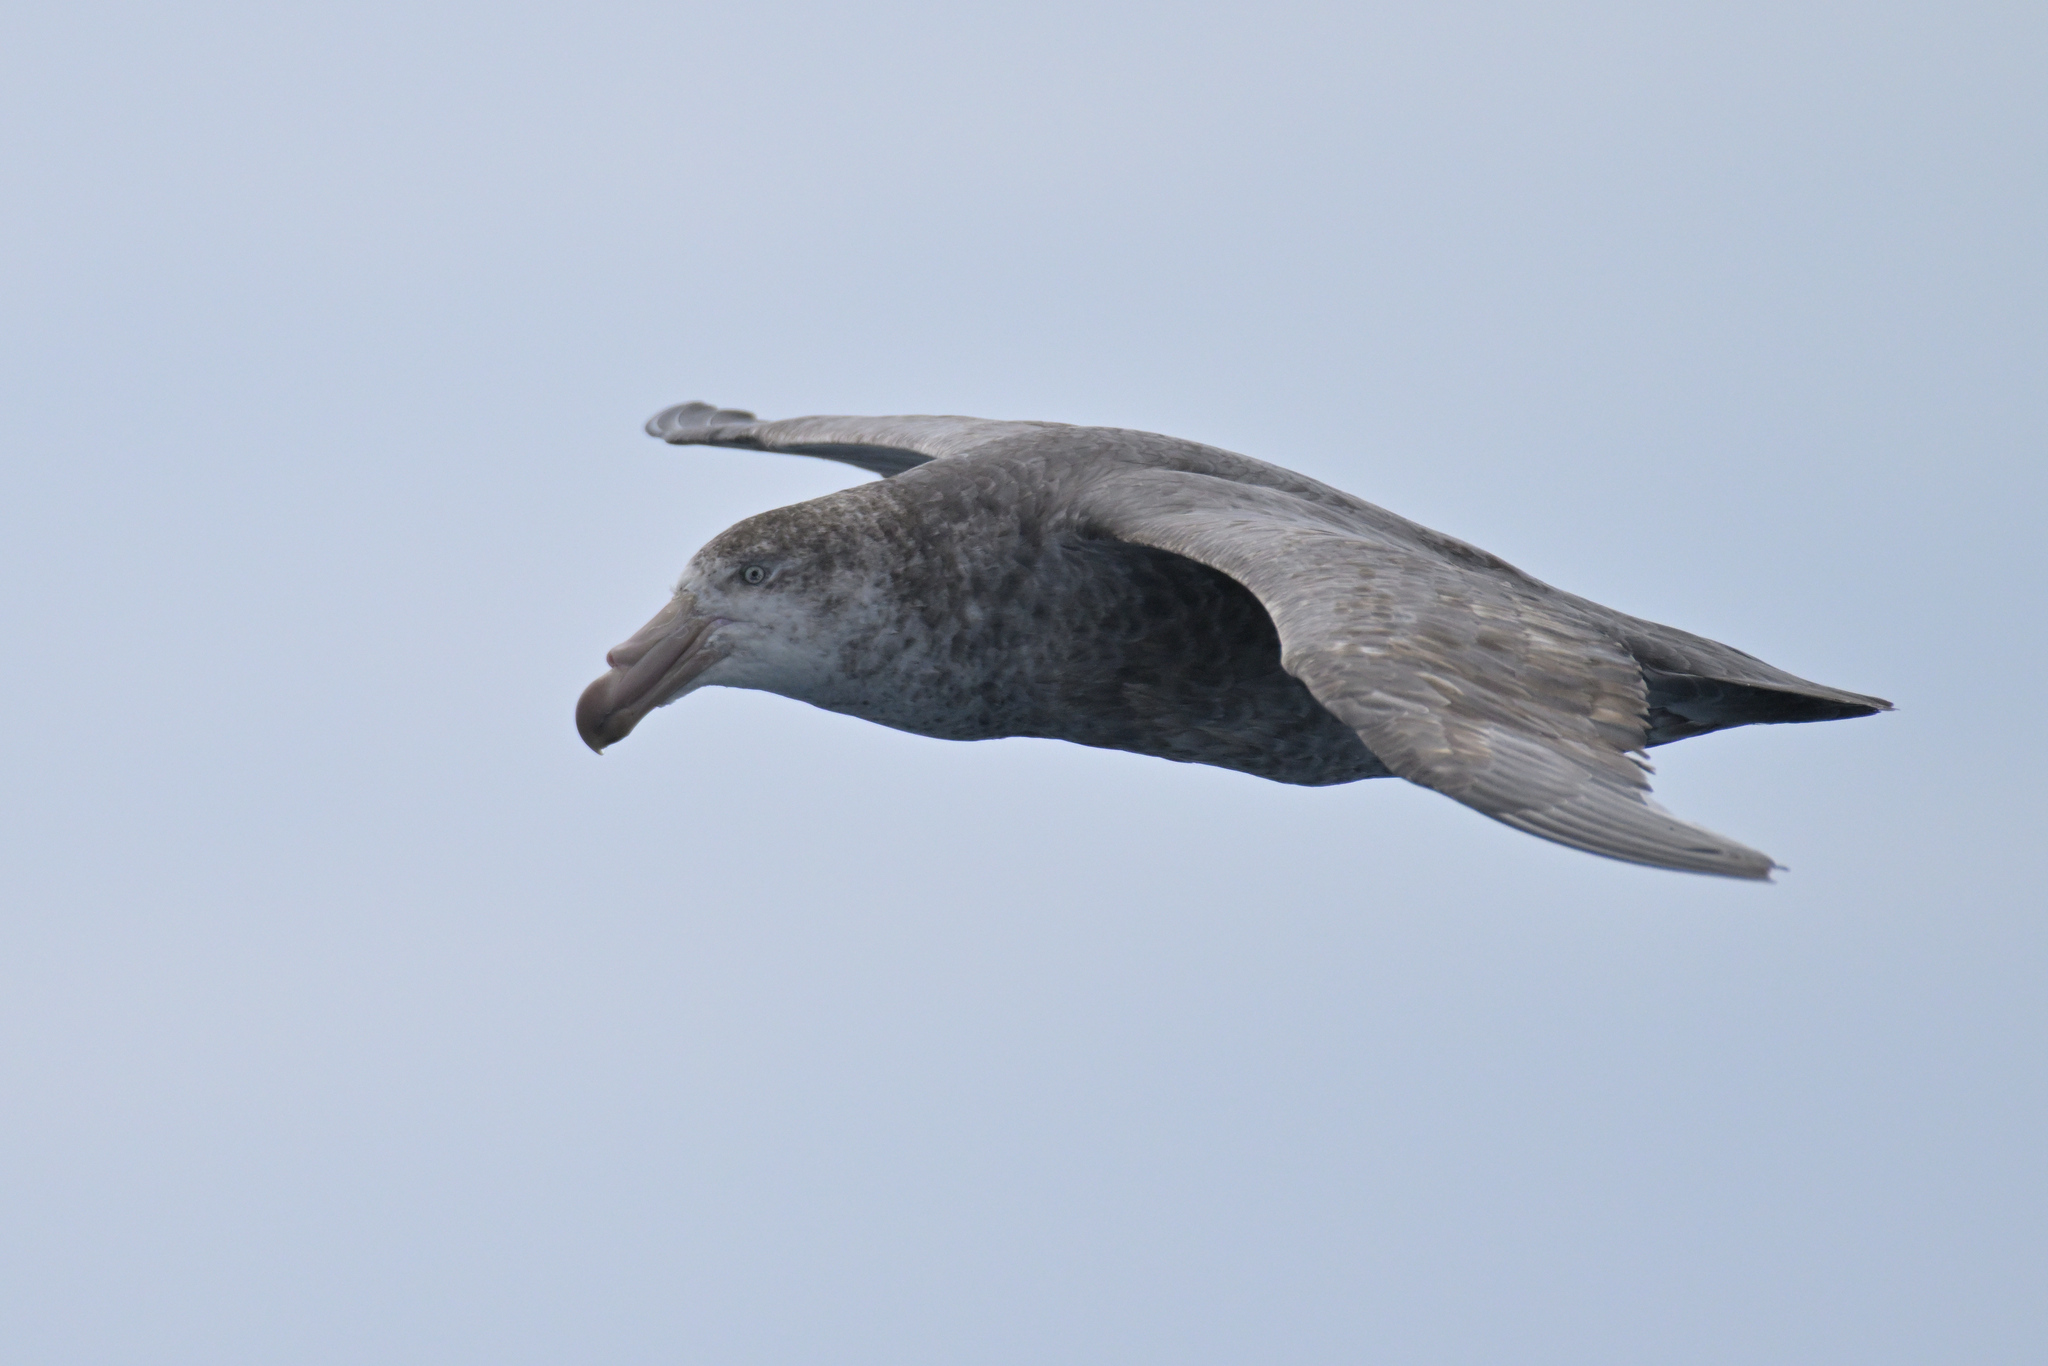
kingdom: Animalia
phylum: Chordata
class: Aves
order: Procellariiformes
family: Procellariidae
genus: Macronectes
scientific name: Macronectes halli
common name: Northern giant petrel
